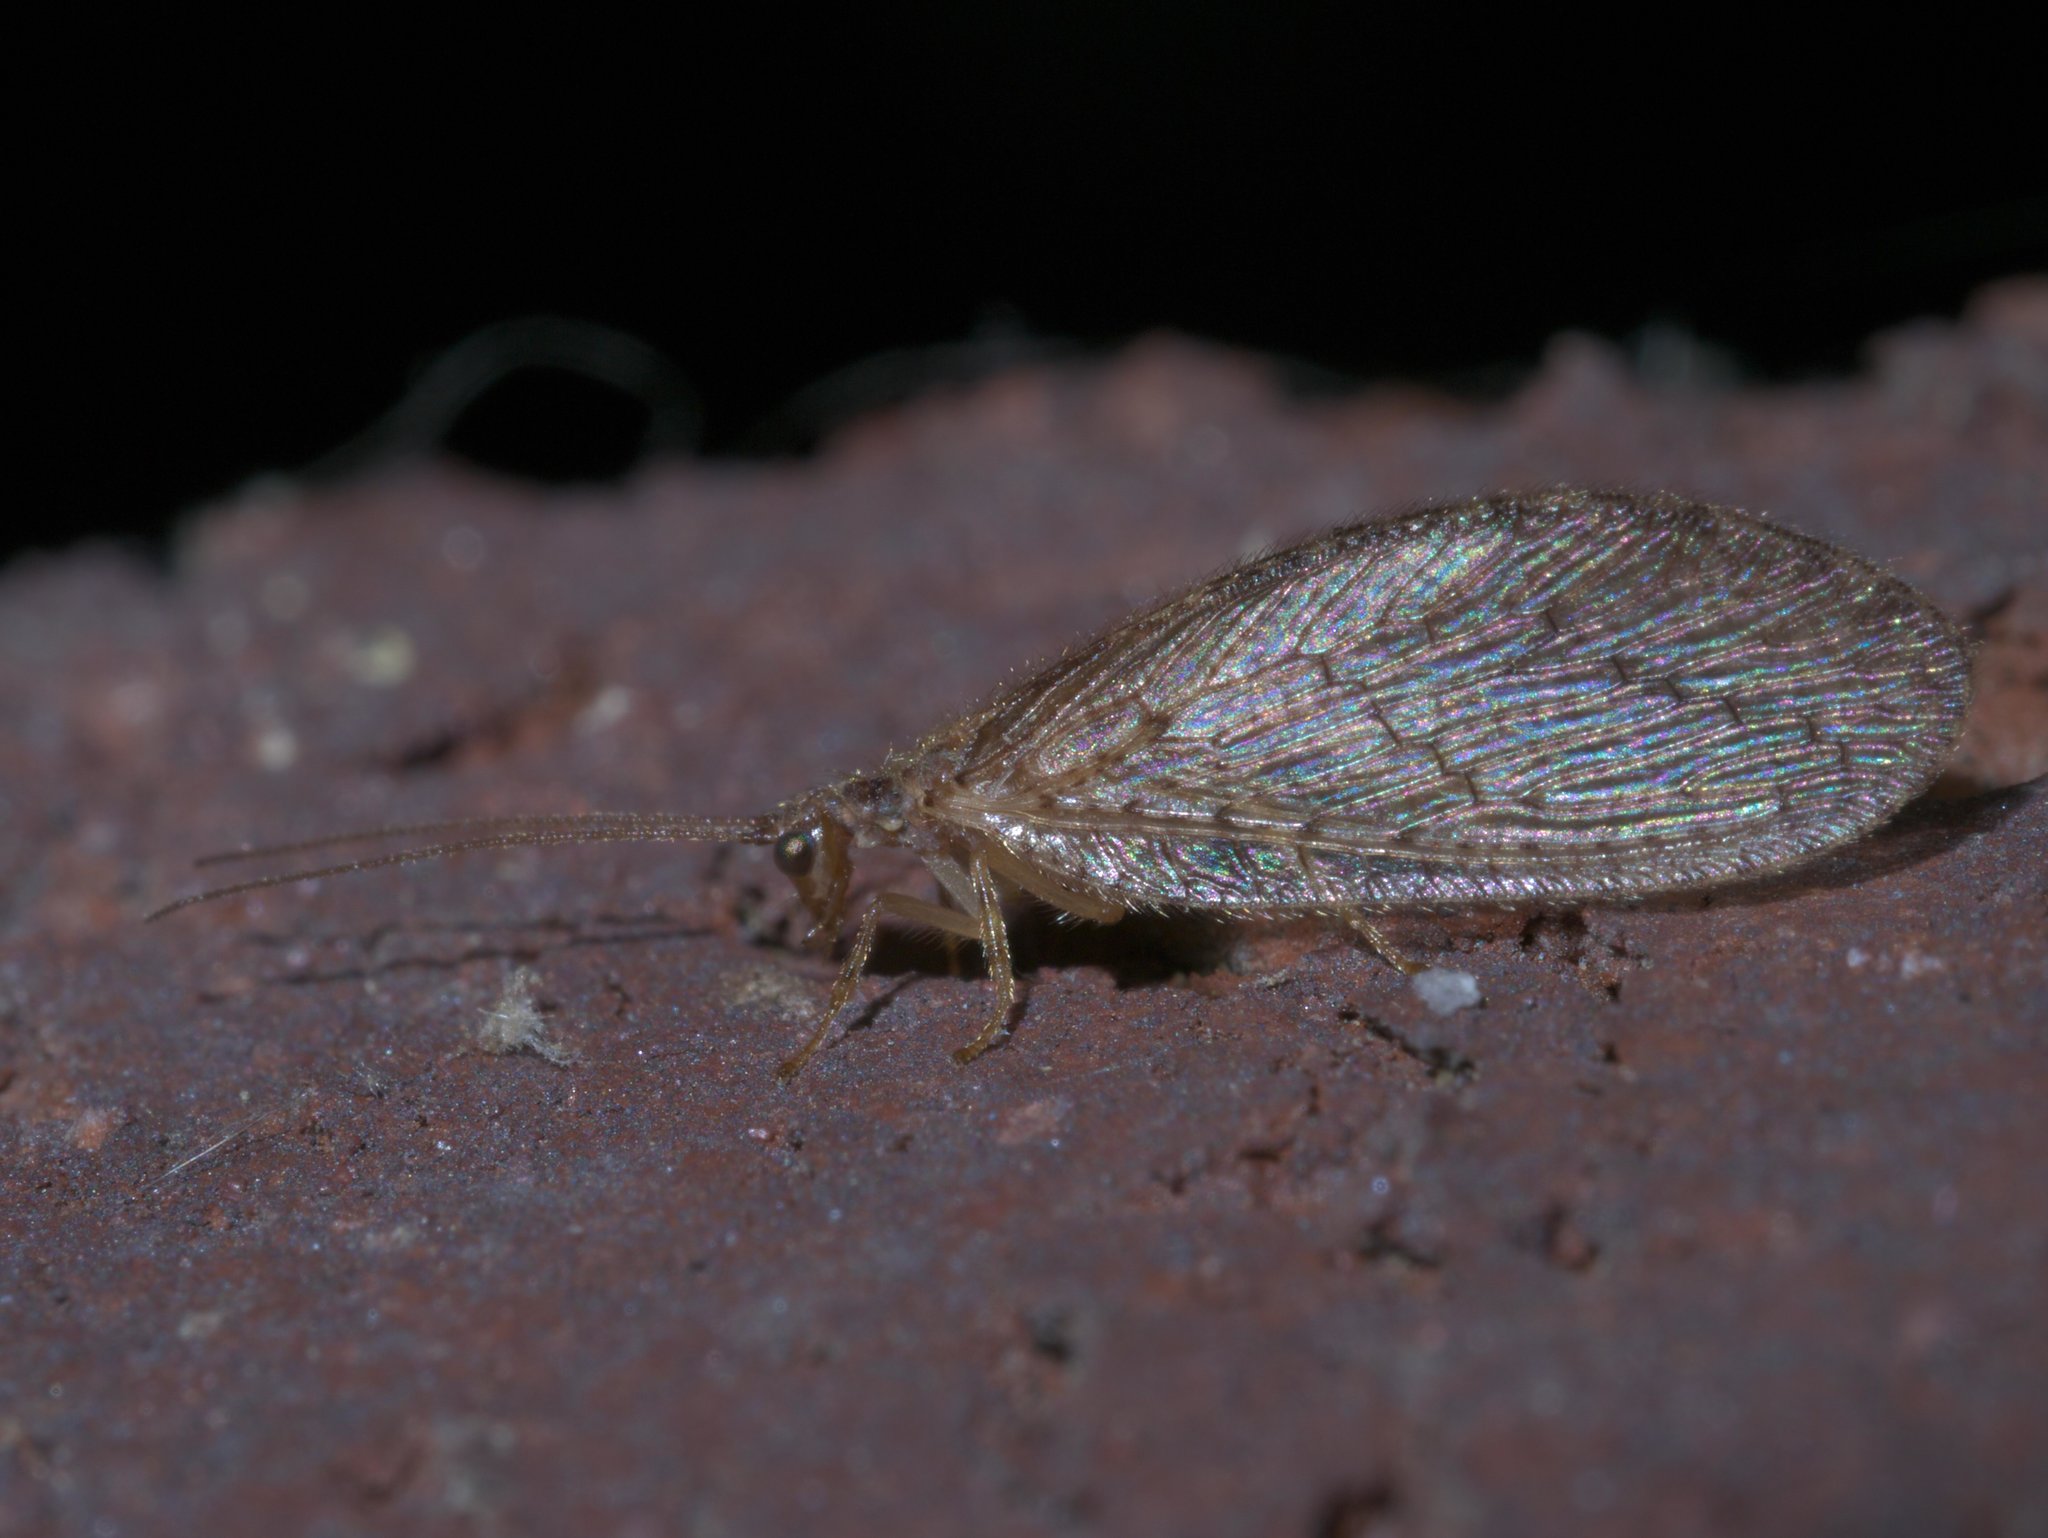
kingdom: Animalia
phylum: Arthropoda
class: Insecta
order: Neuroptera
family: Hemerobiidae
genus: Micromus
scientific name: Micromus posticus
